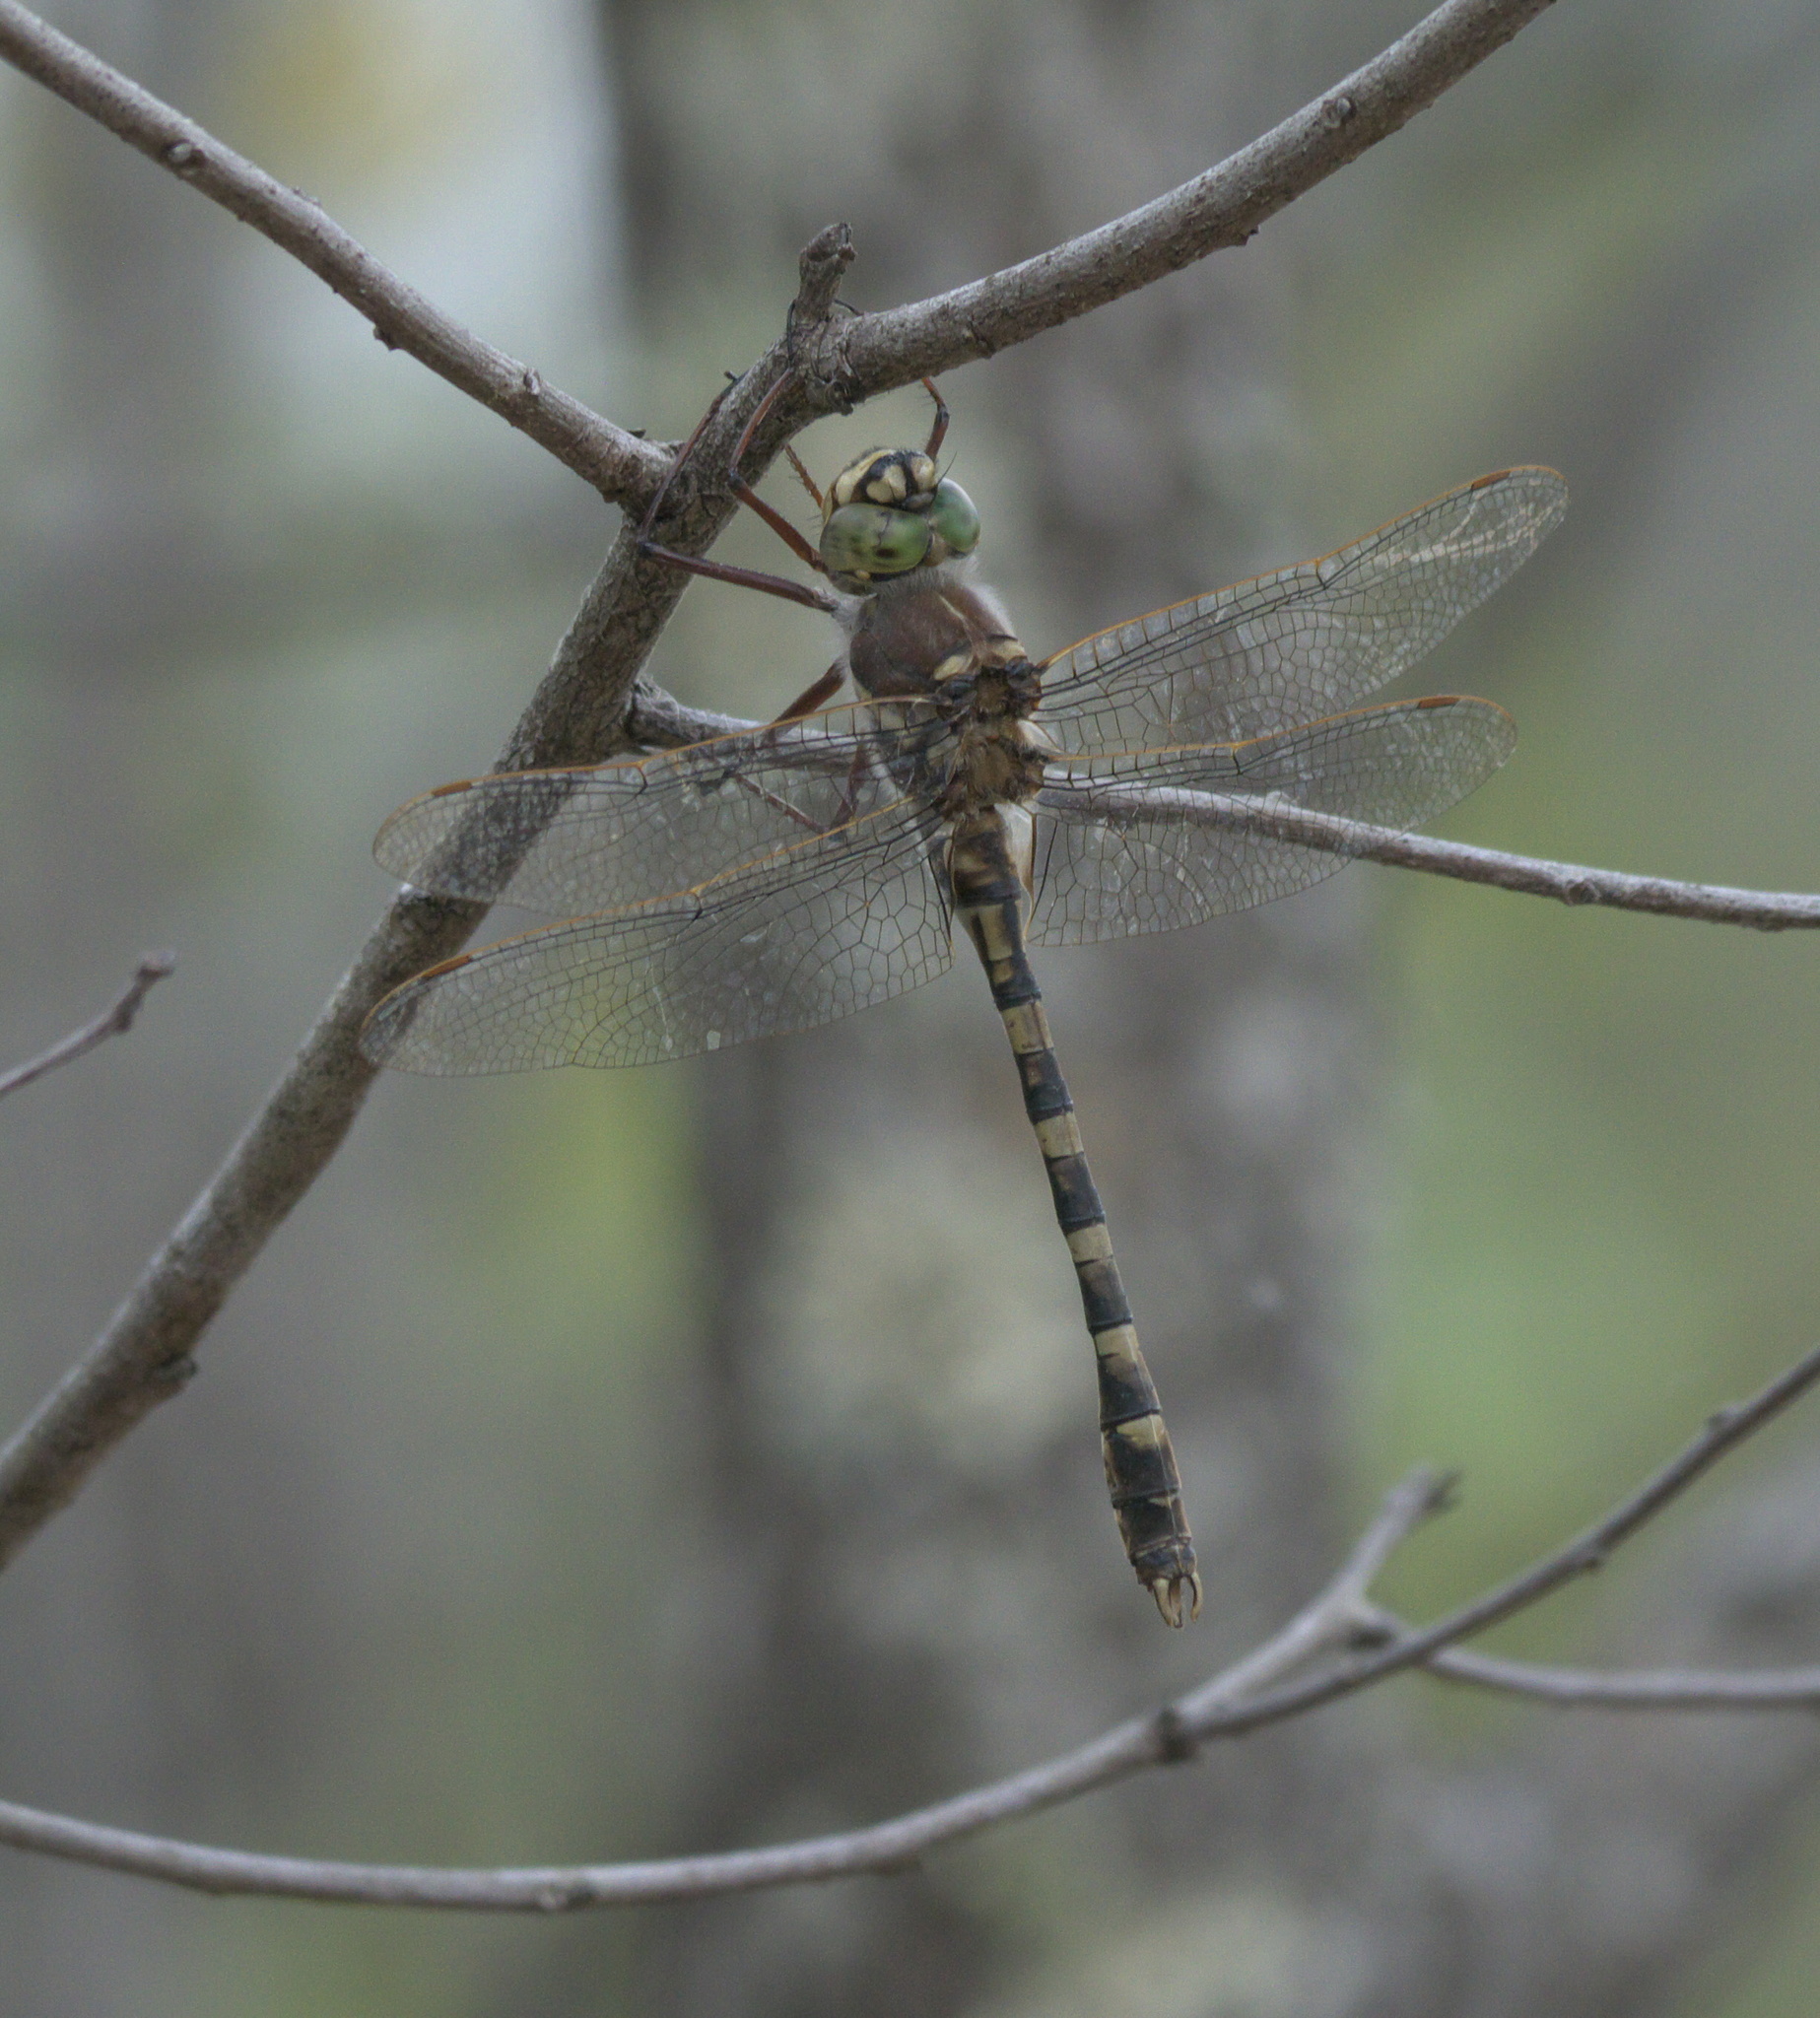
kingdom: Animalia
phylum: Arthropoda
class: Insecta
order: Odonata
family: Macromiidae
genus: Didymops
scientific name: Didymops floridensis
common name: Florida cruiser
